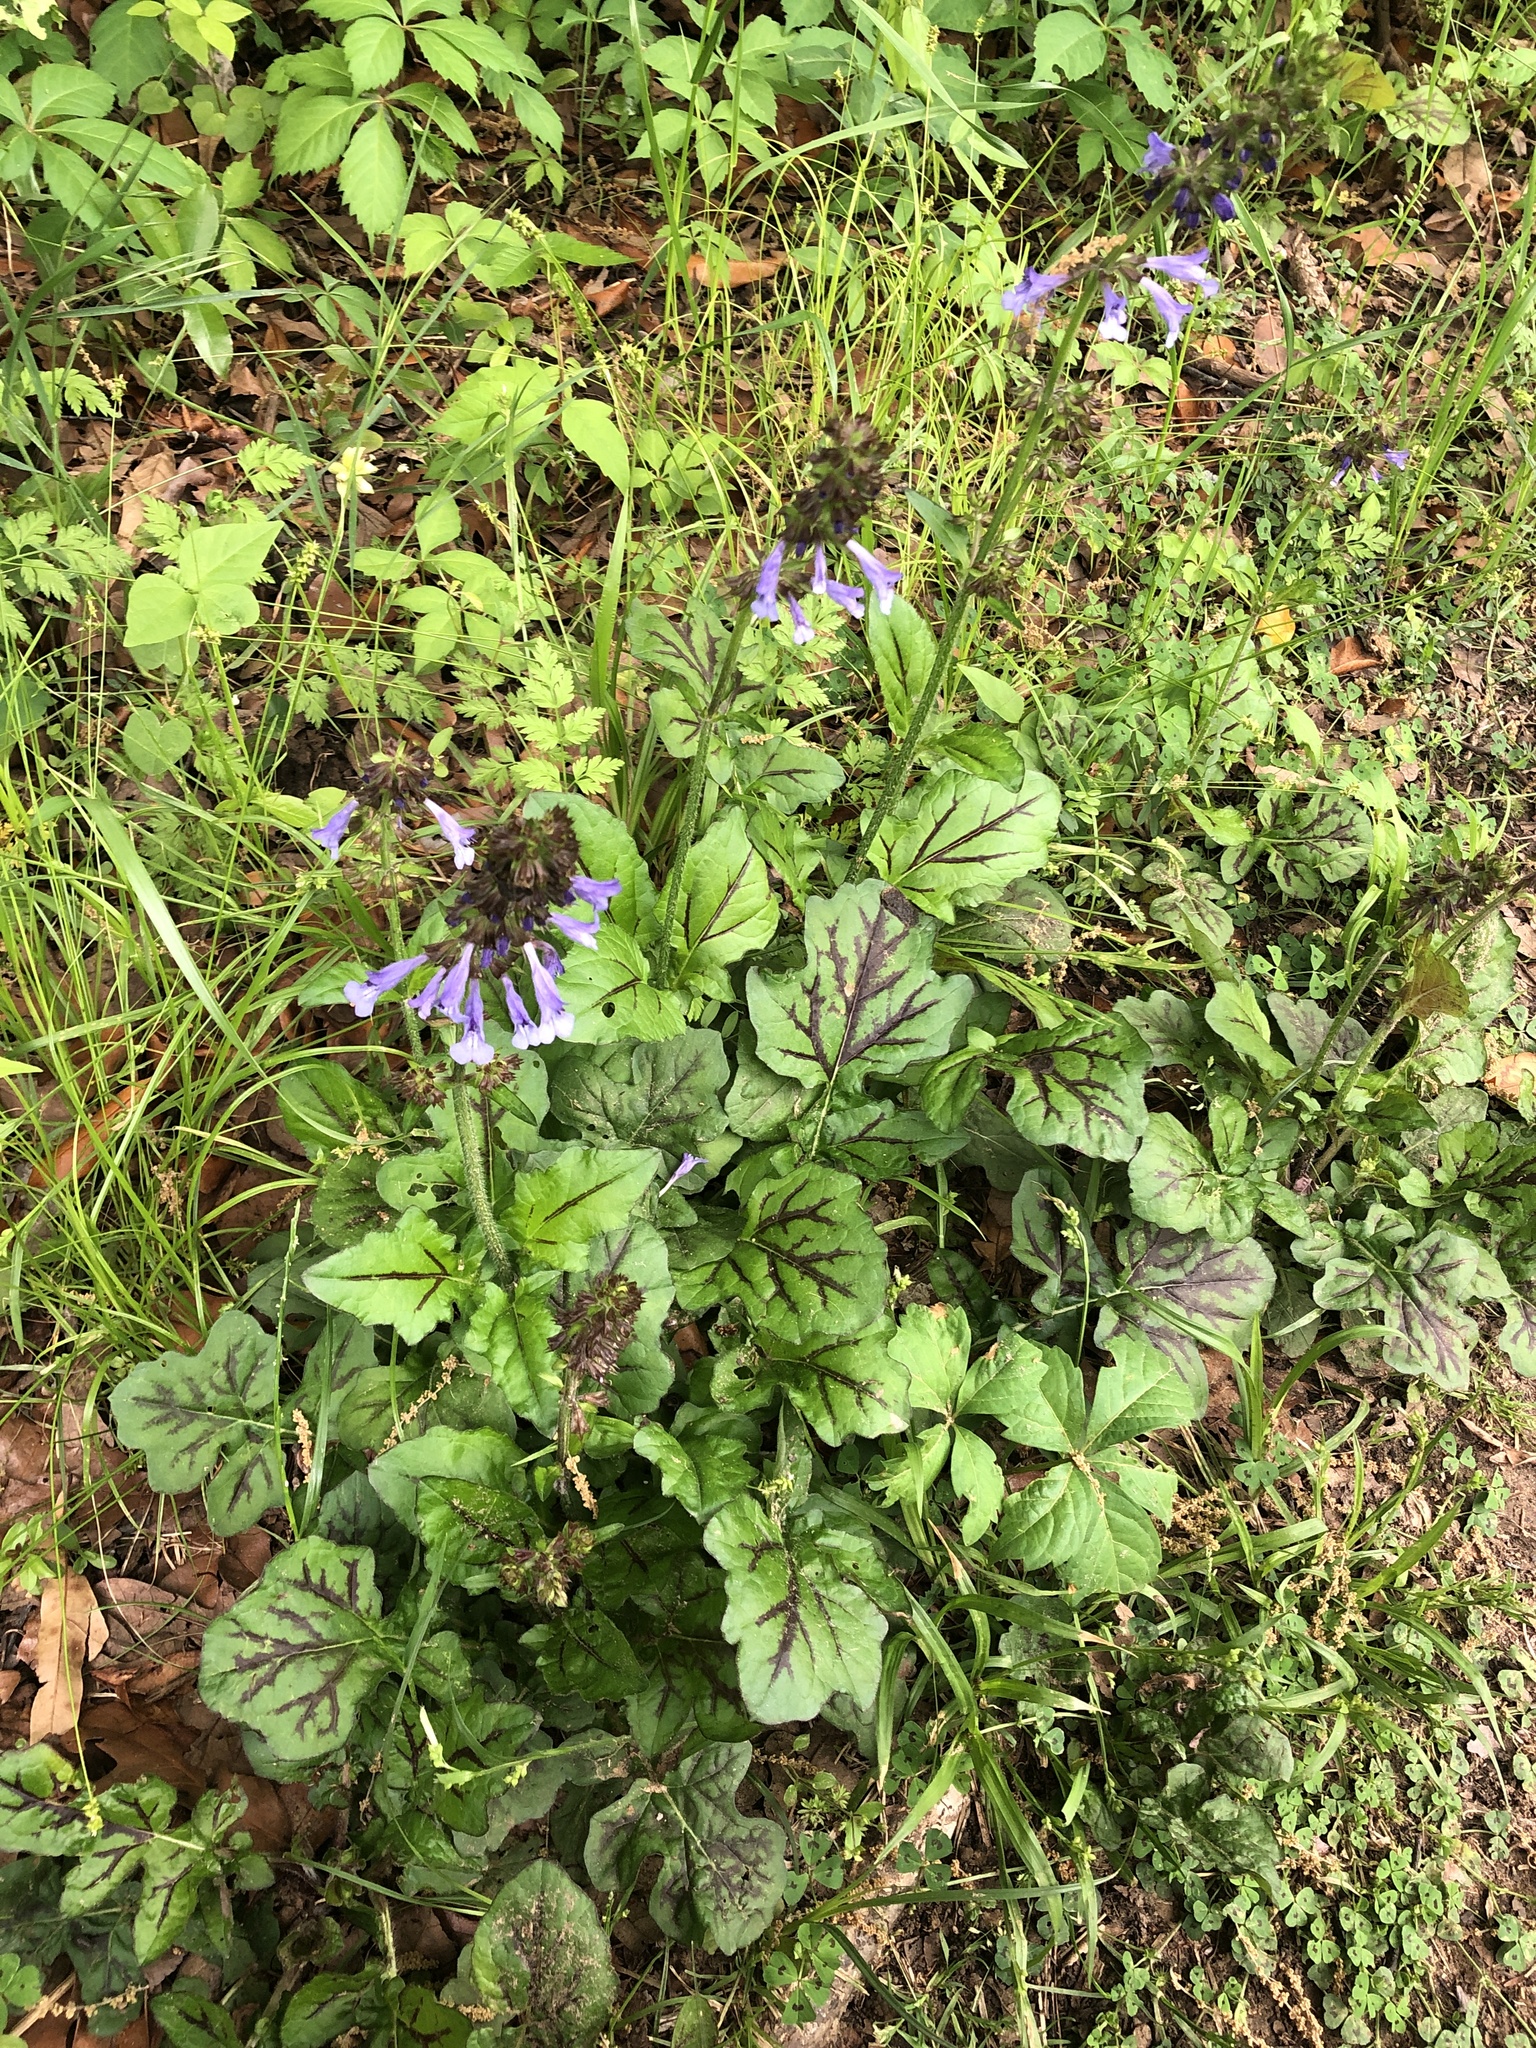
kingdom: Plantae
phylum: Tracheophyta
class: Magnoliopsida
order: Lamiales
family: Lamiaceae
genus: Salvia
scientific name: Salvia lyrata
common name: Cancerweed
